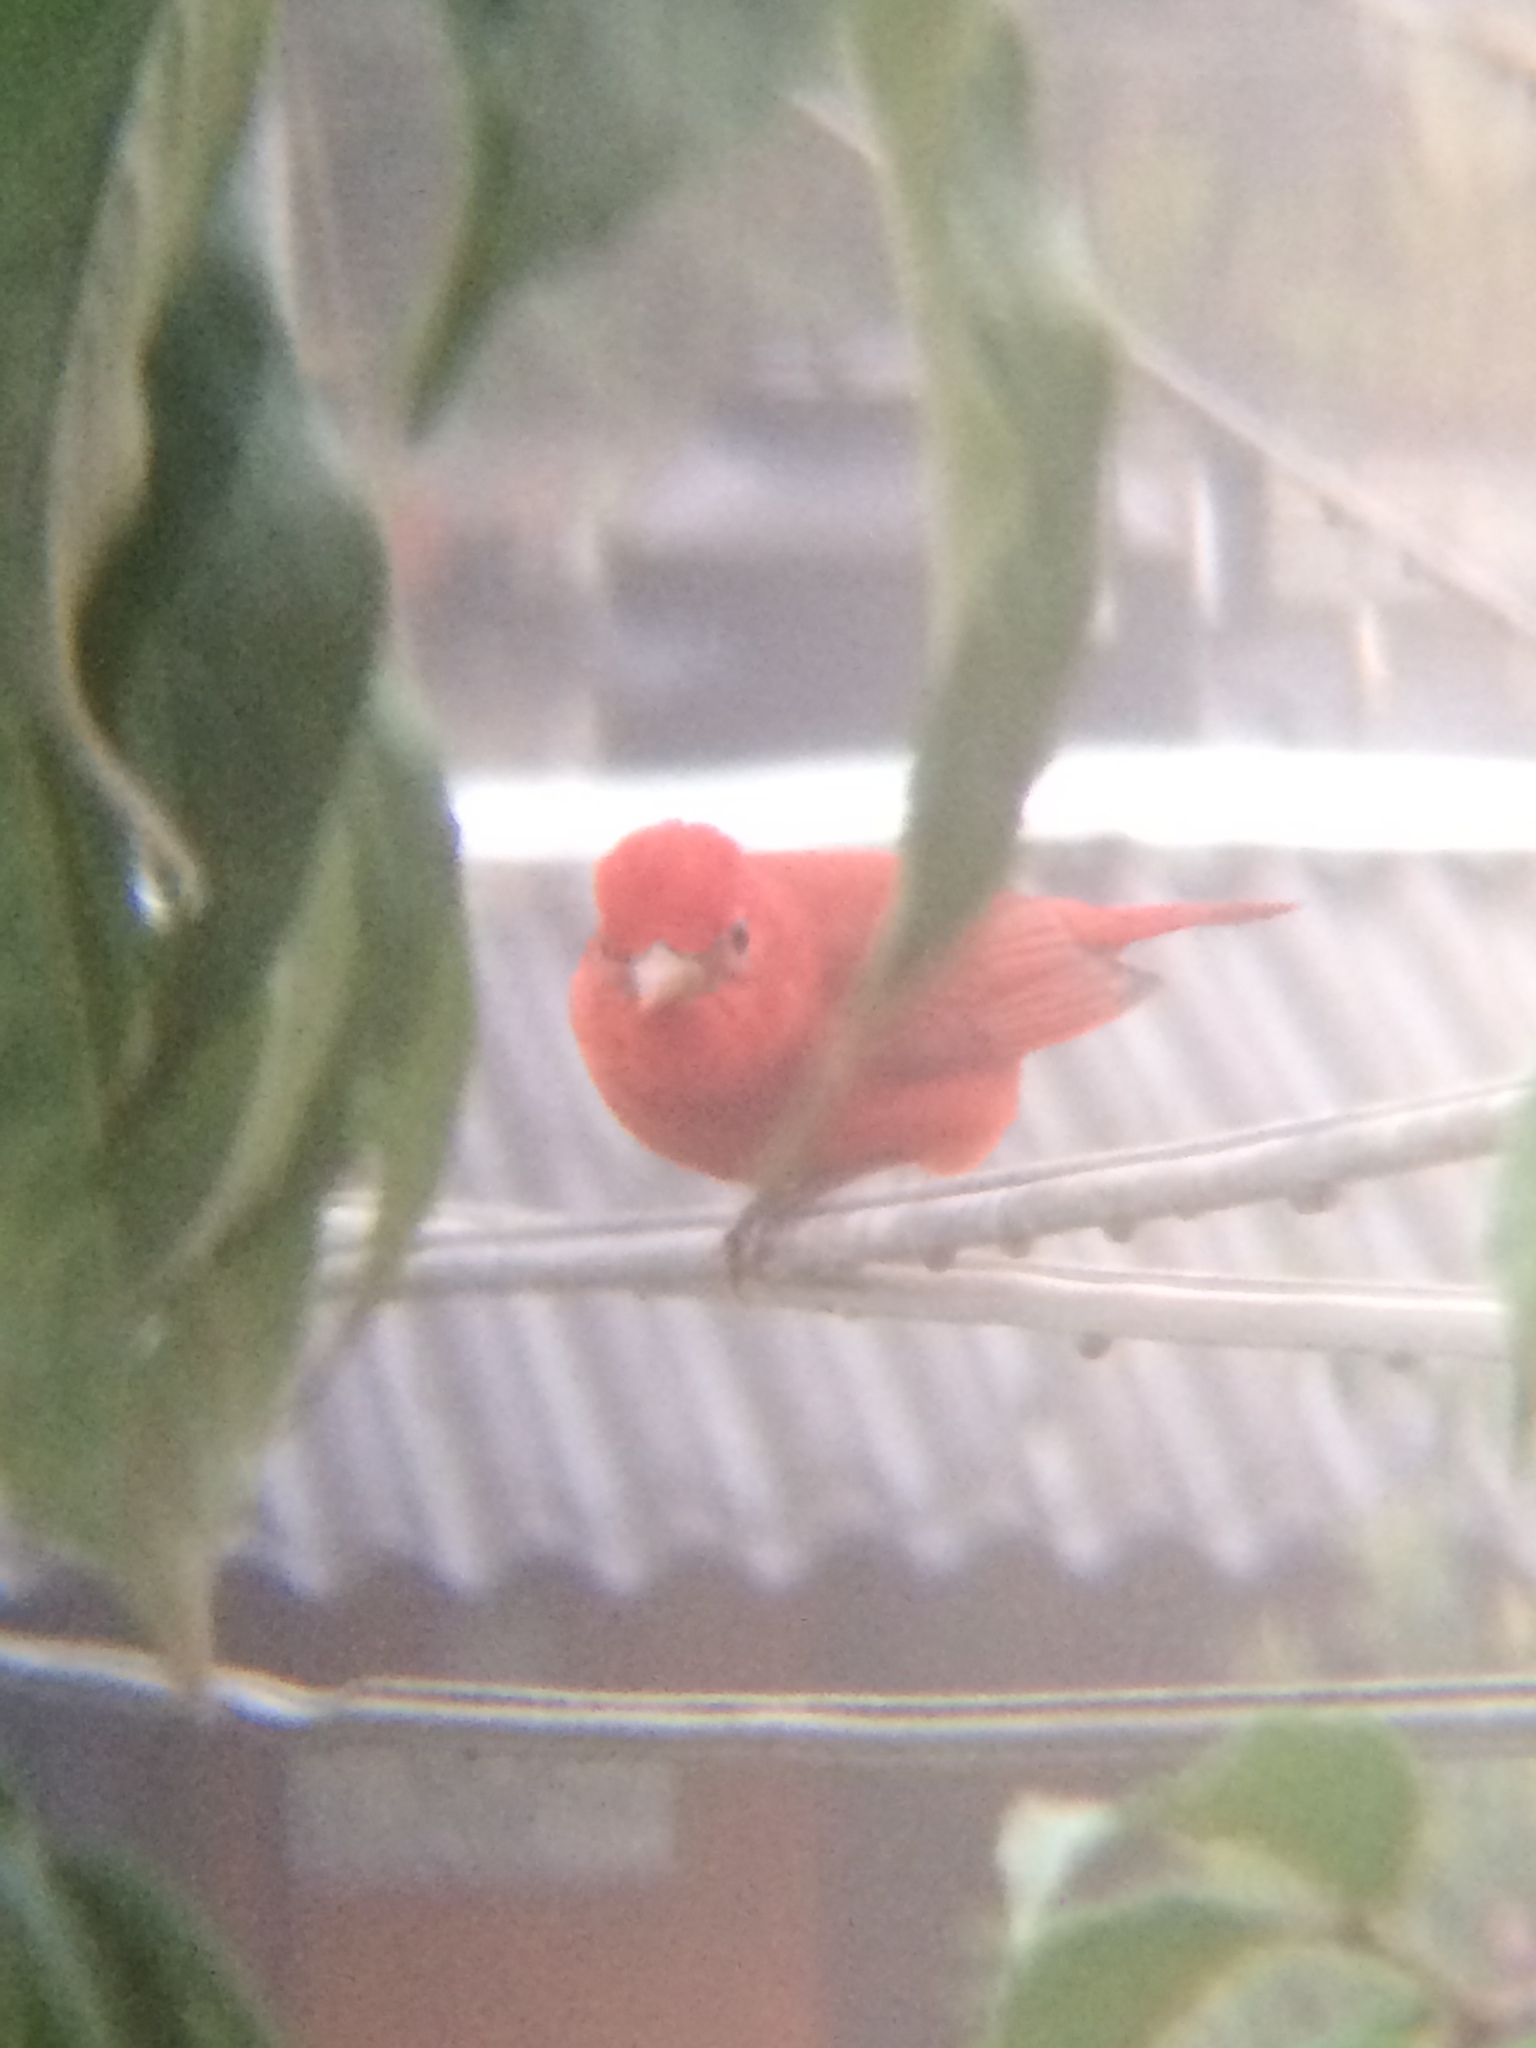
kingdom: Animalia
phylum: Chordata
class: Aves
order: Passeriformes
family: Cardinalidae
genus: Piranga
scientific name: Piranga rubra
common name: Summer tanager
